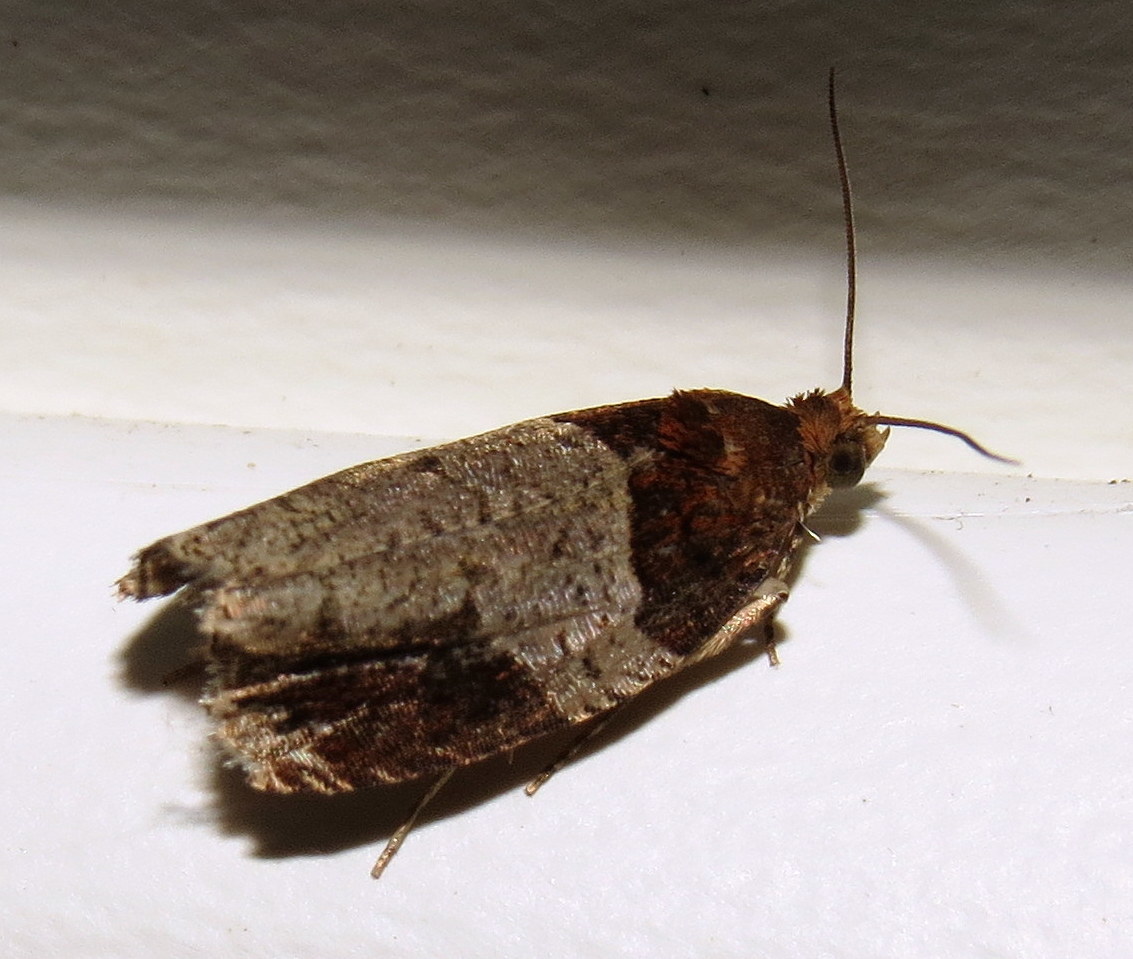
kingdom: Animalia
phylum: Arthropoda
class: Insecta
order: Lepidoptera
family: Tortricidae
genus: Olethreutes
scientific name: Olethreutes ferriferana
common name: Hydrangea leaftier moth
